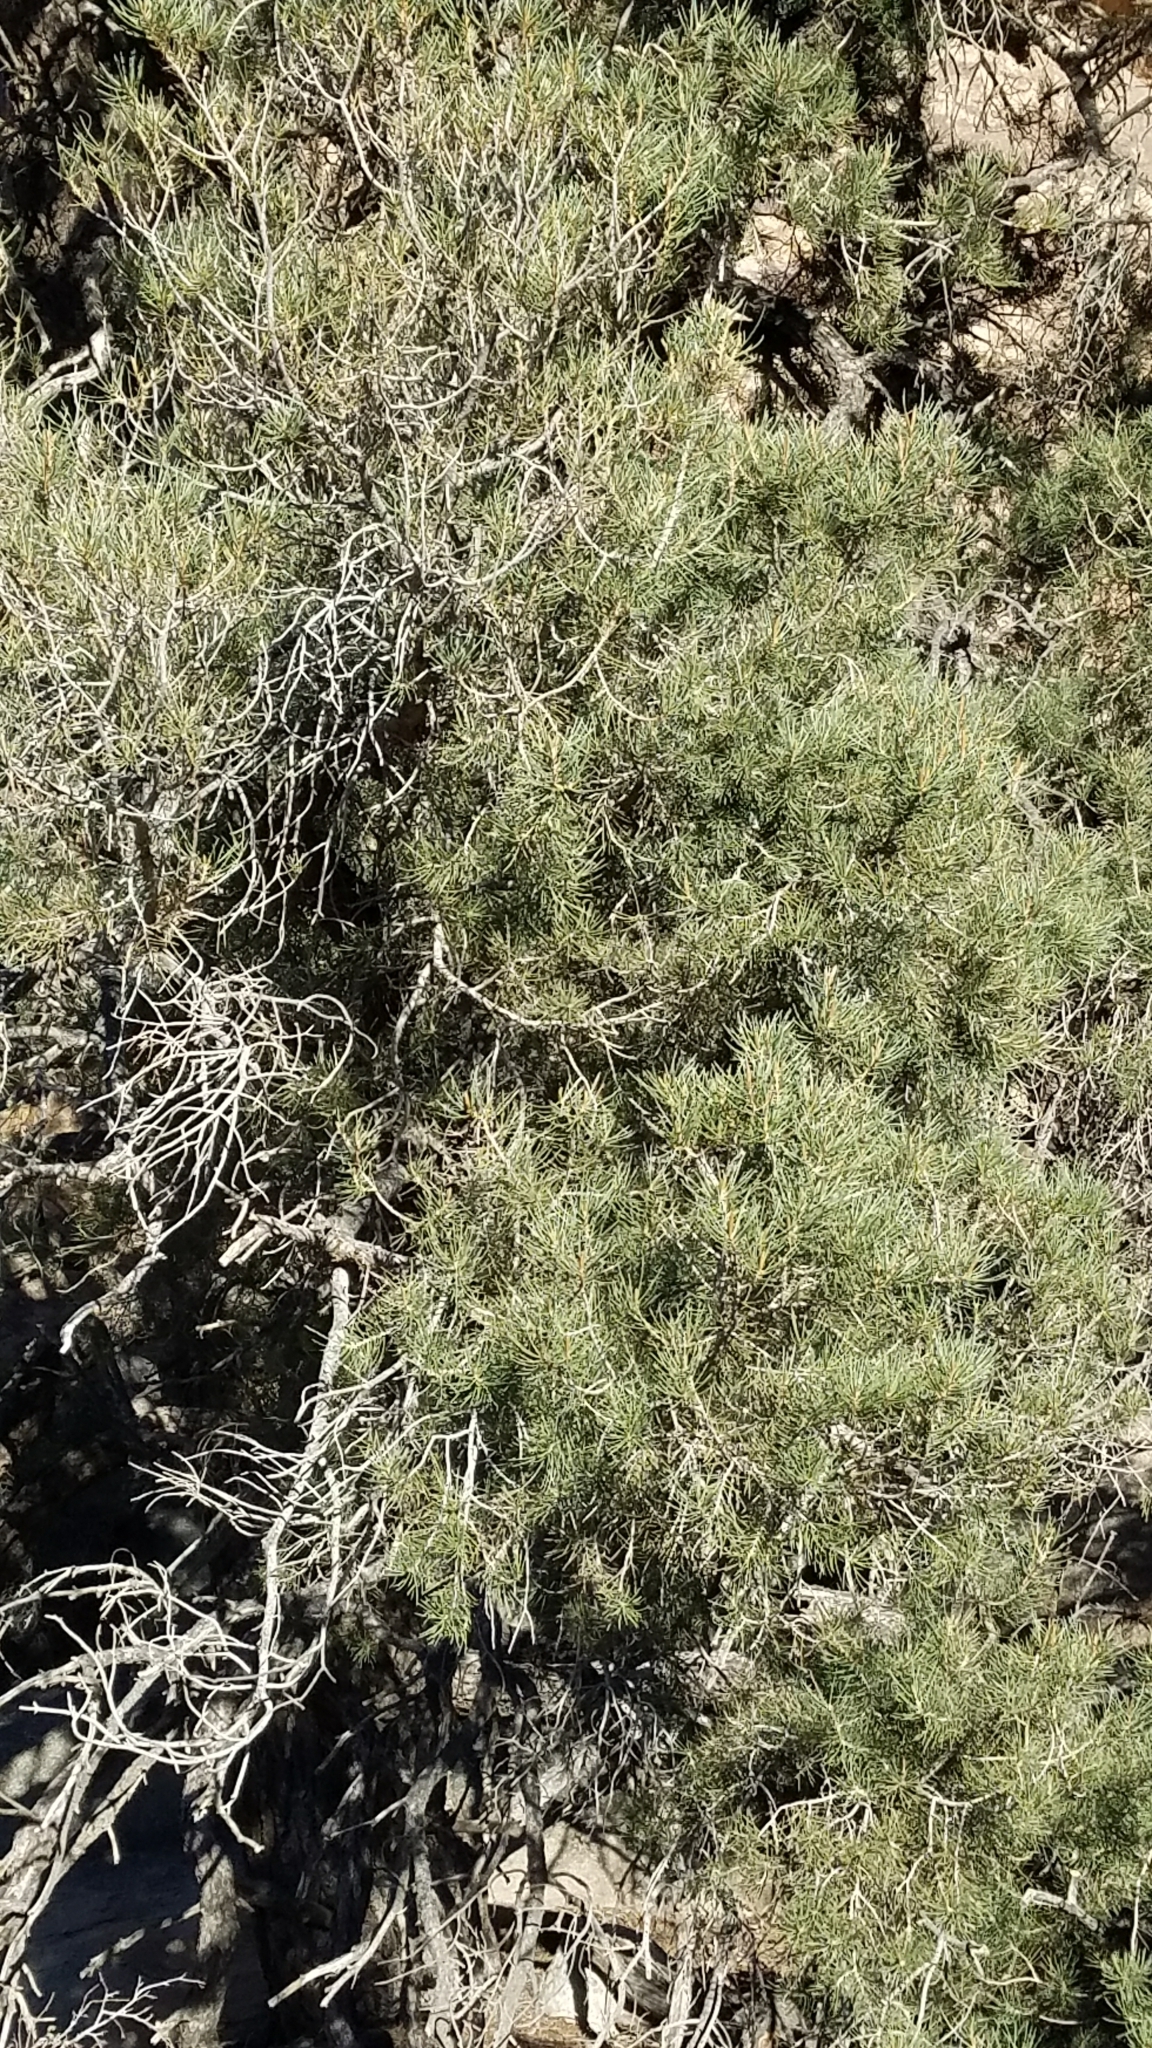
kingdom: Plantae
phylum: Tracheophyta
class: Pinopsida
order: Pinales
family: Pinaceae
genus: Pinus
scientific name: Pinus monophylla
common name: One-leaved nut pine
